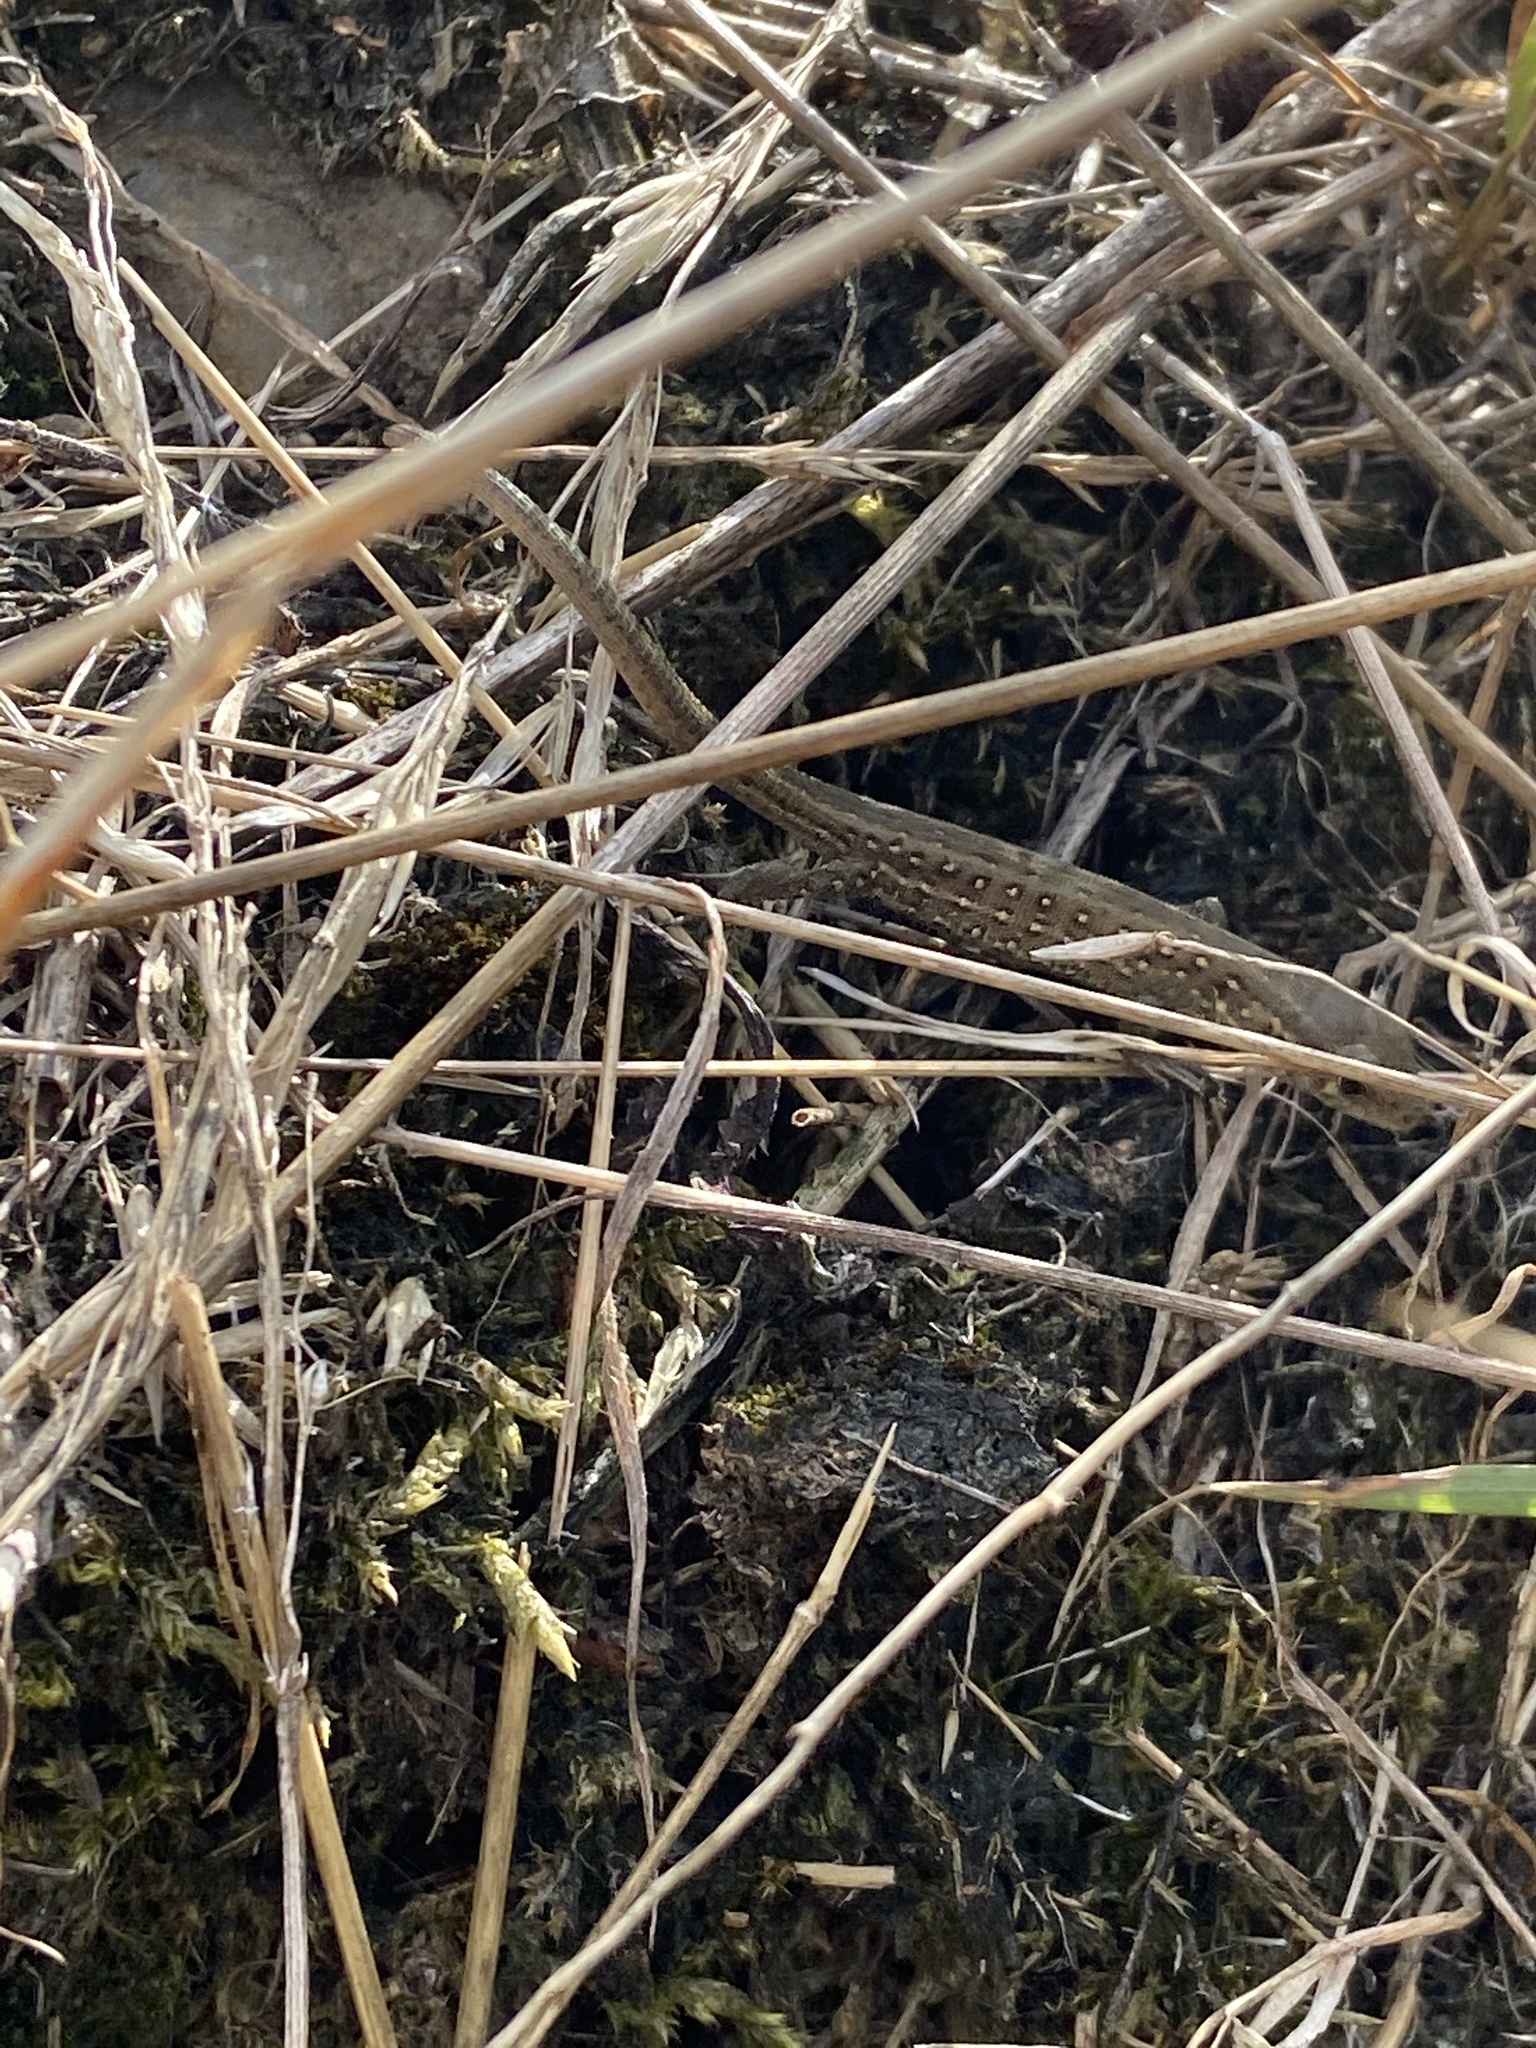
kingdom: Animalia
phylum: Chordata
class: Squamata
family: Lacertidae
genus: Lacerta
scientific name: Lacerta agilis
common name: Sand lizard
